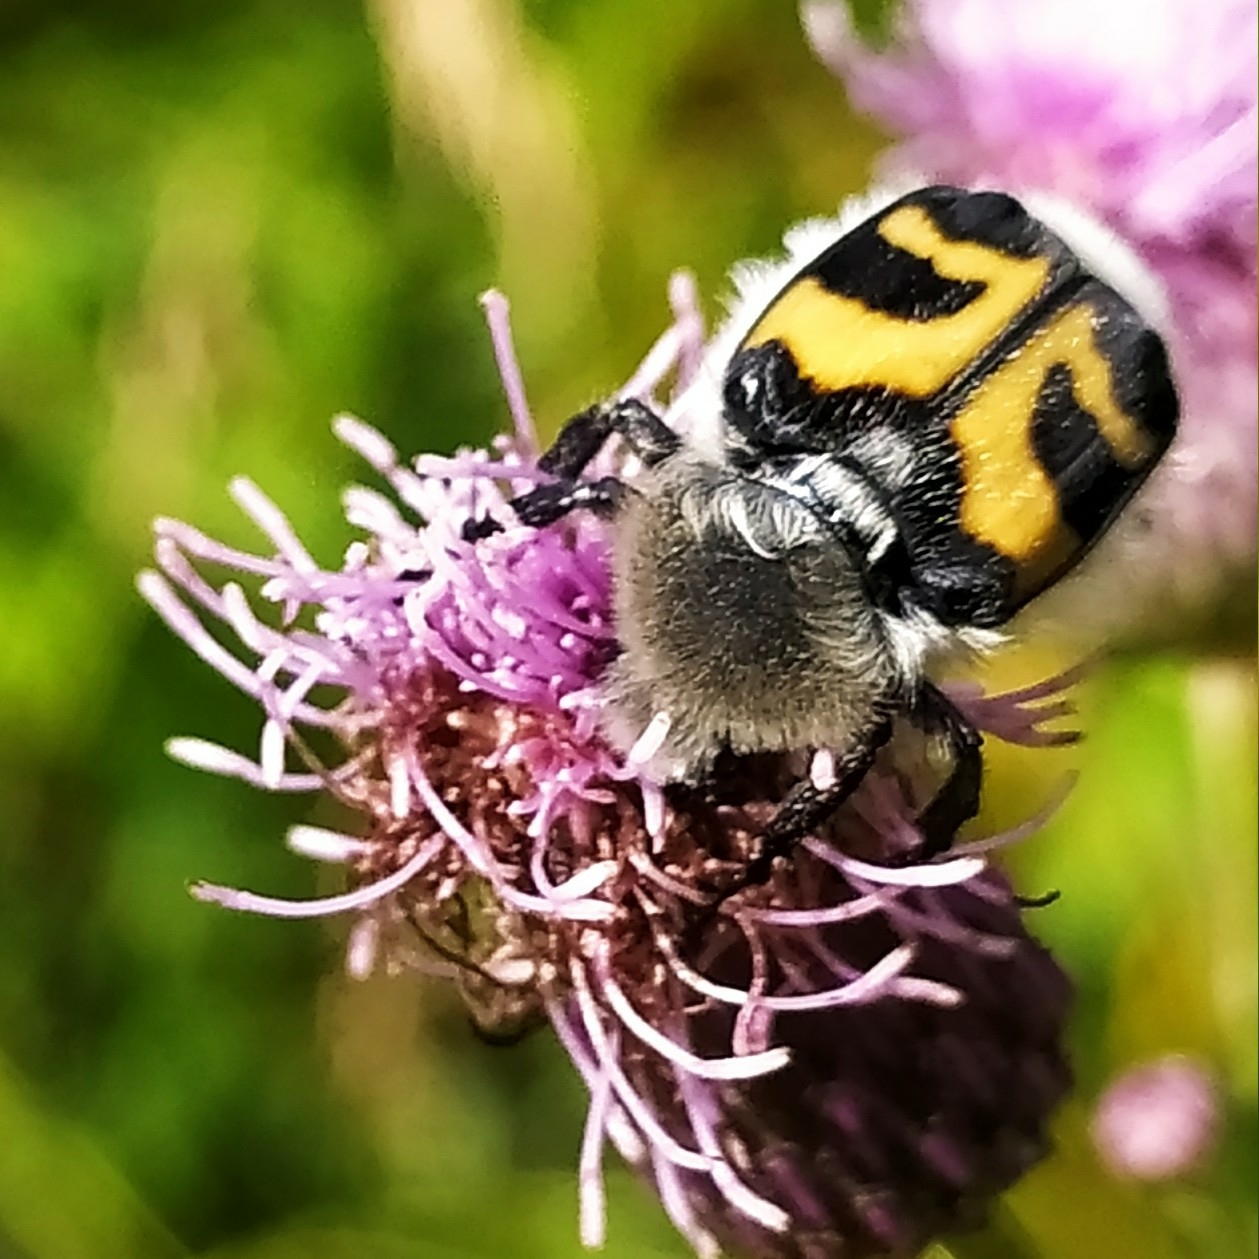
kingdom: Animalia
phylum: Arthropoda
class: Insecta
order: Coleoptera
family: Scarabaeidae
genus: Trichius
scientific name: Trichius fasciatus
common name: Bee beetle
